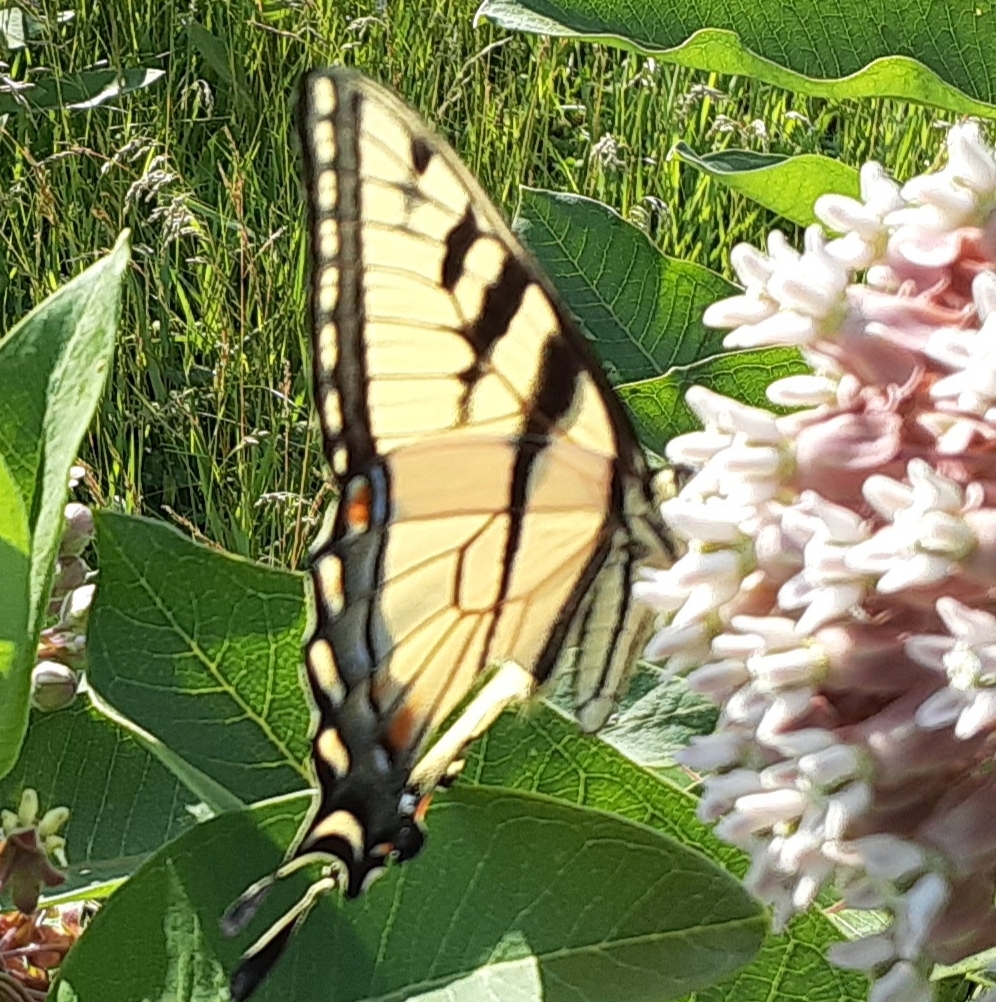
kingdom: Animalia
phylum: Arthropoda
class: Insecta
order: Lepidoptera
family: Papilionidae
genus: Papilio
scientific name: Papilio glaucus
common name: Tiger swallowtail
